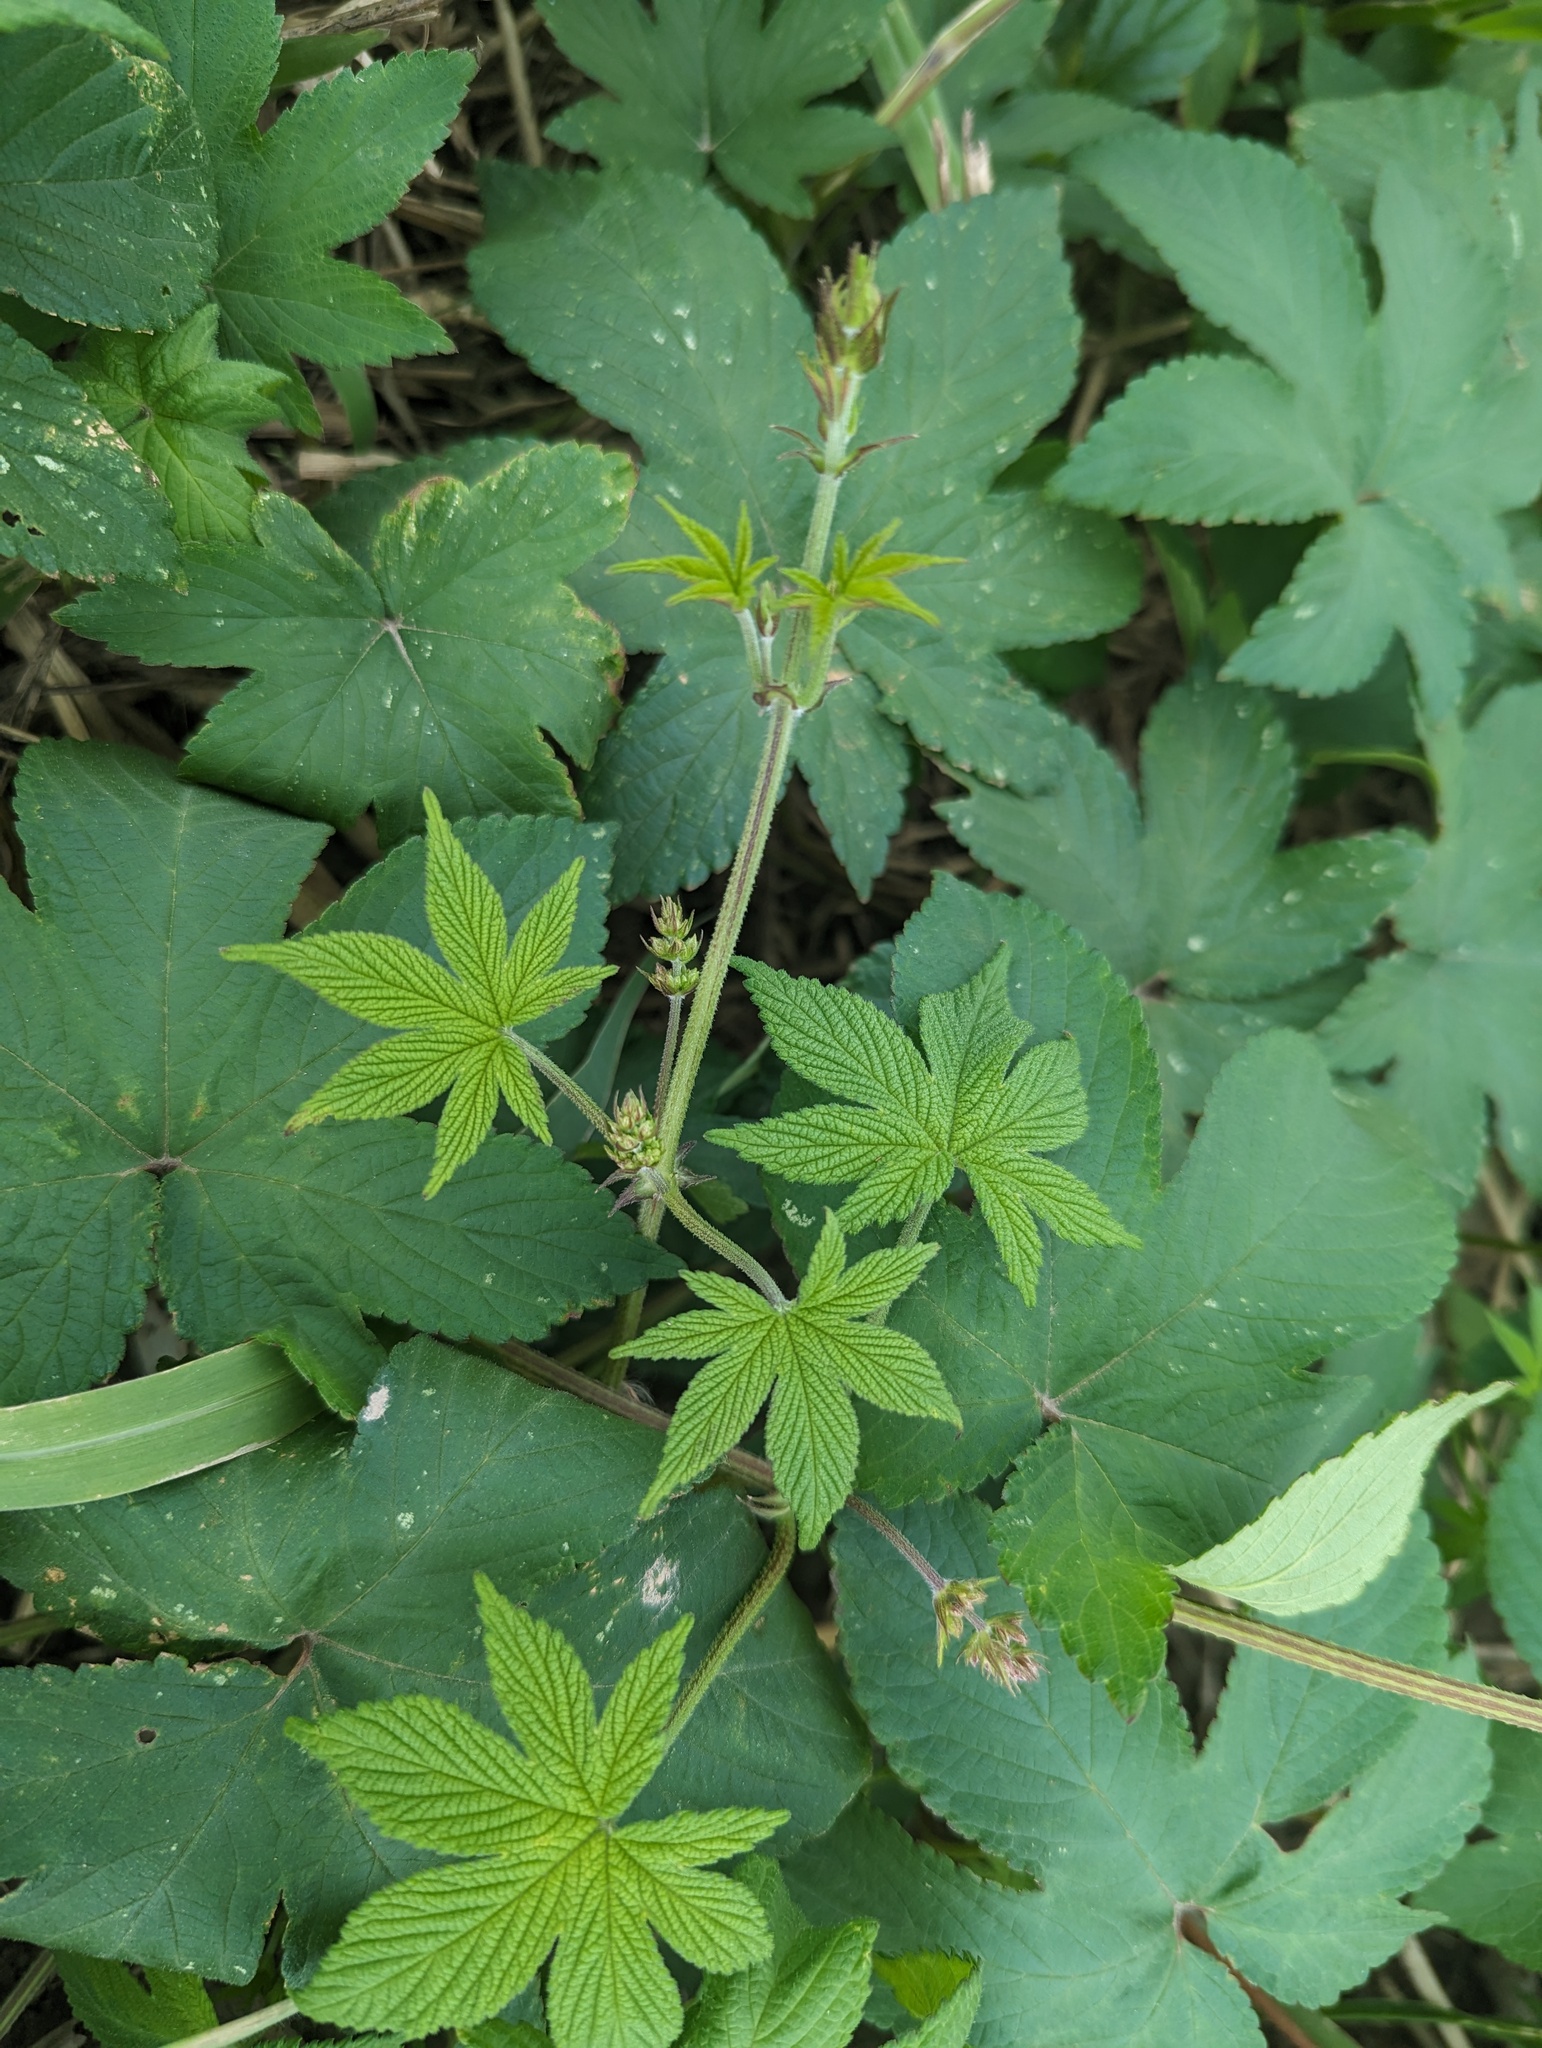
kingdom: Plantae
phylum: Tracheophyta
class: Magnoliopsida
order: Rosales
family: Cannabaceae
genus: Humulus
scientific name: Humulus scandens
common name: Japanese hop
